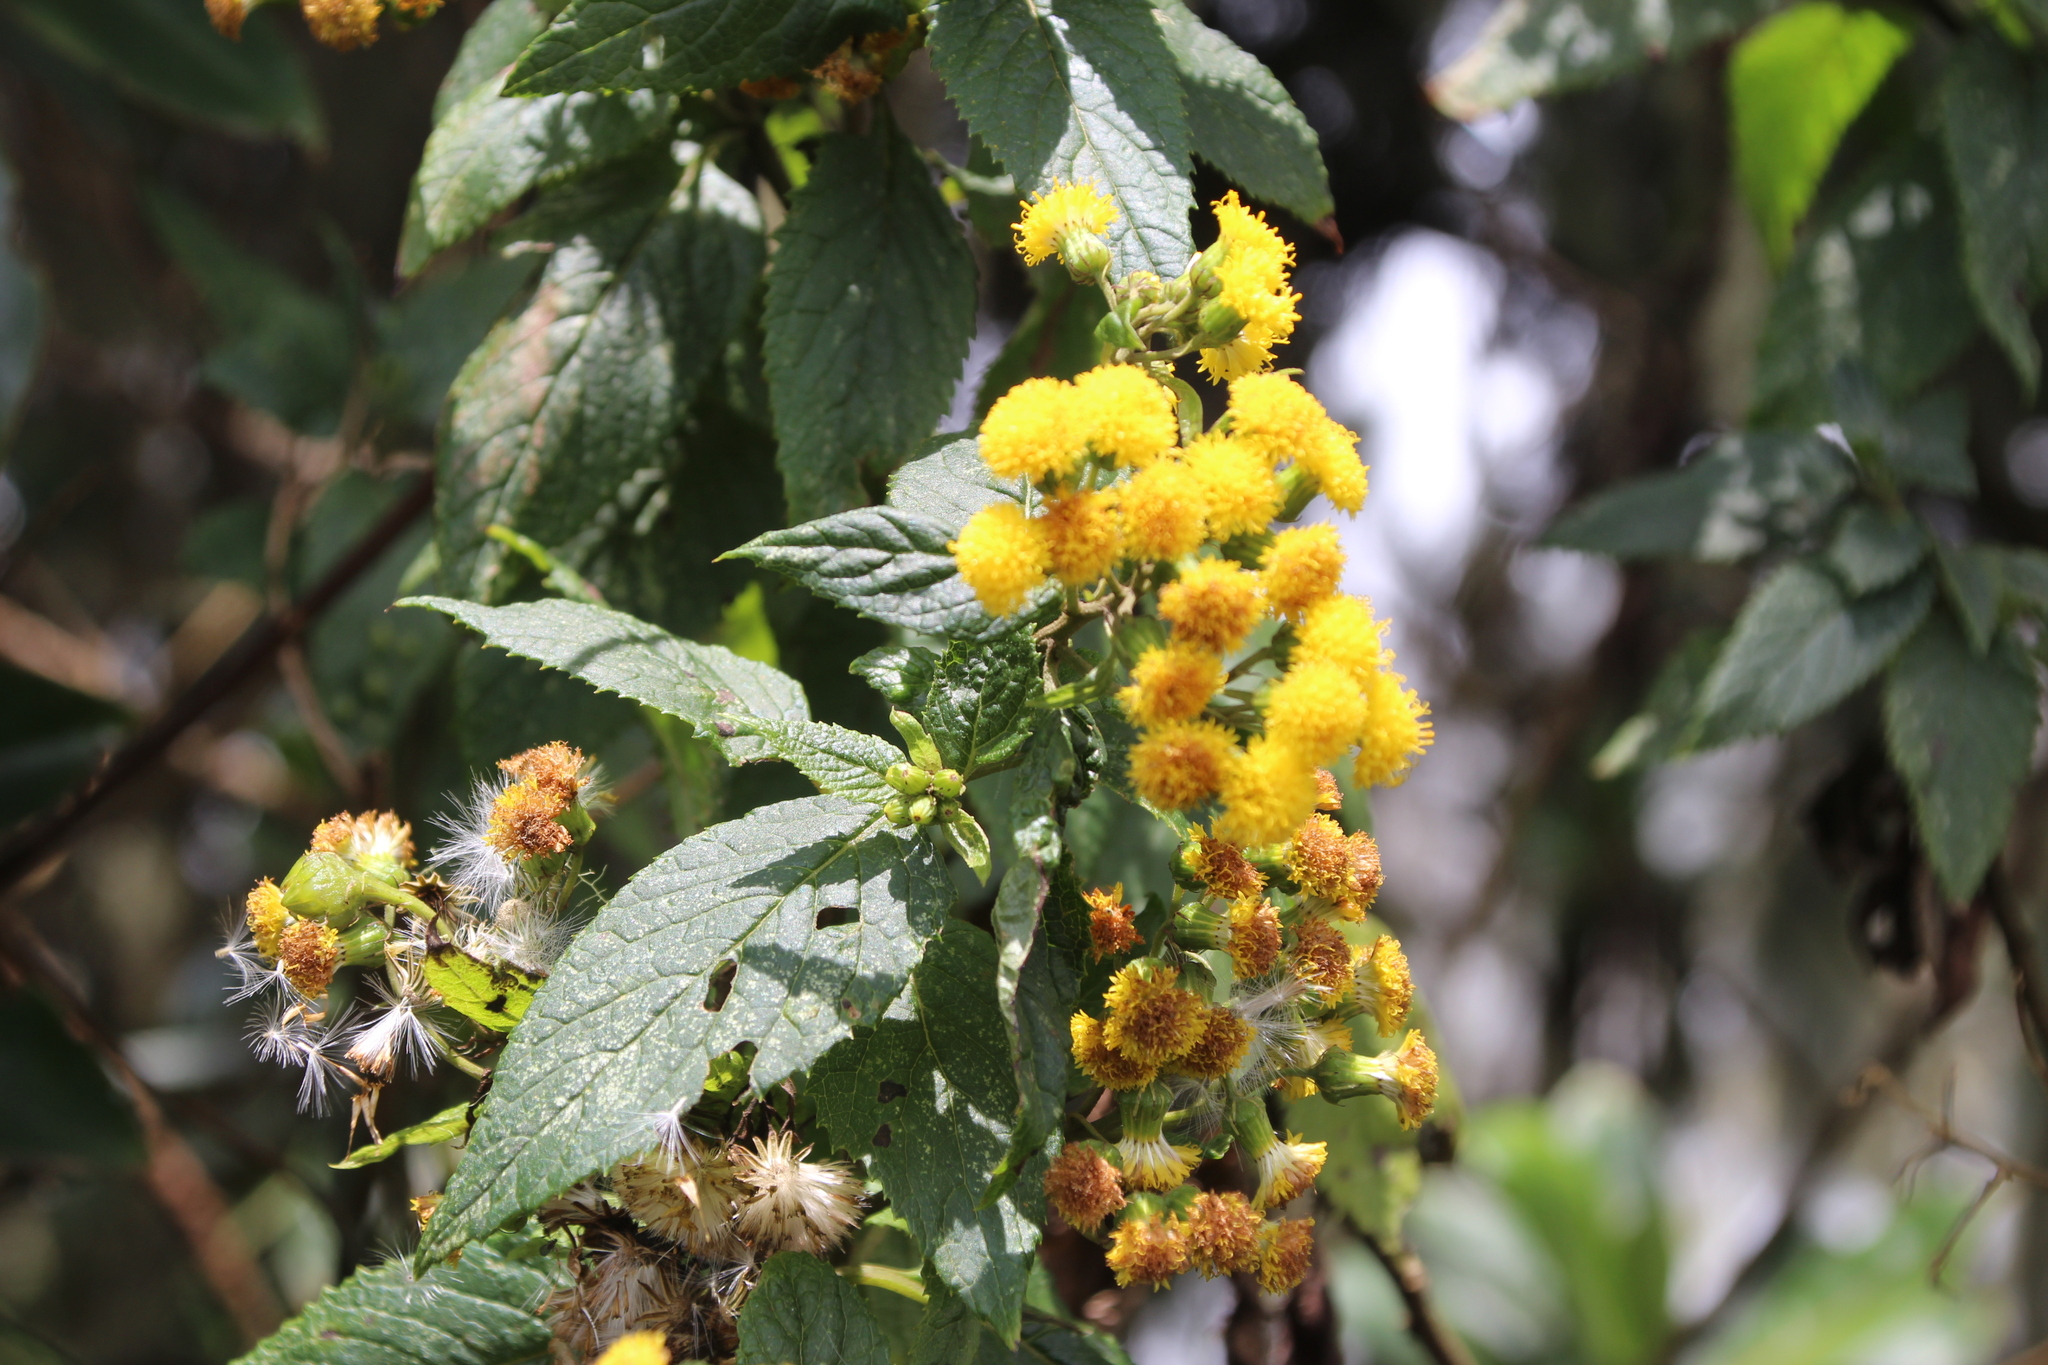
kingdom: Plantae
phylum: Tracheophyta
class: Magnoliopsida
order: Asterales
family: Asteraceae
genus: Nidorella
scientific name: Nidorella vernonioides
